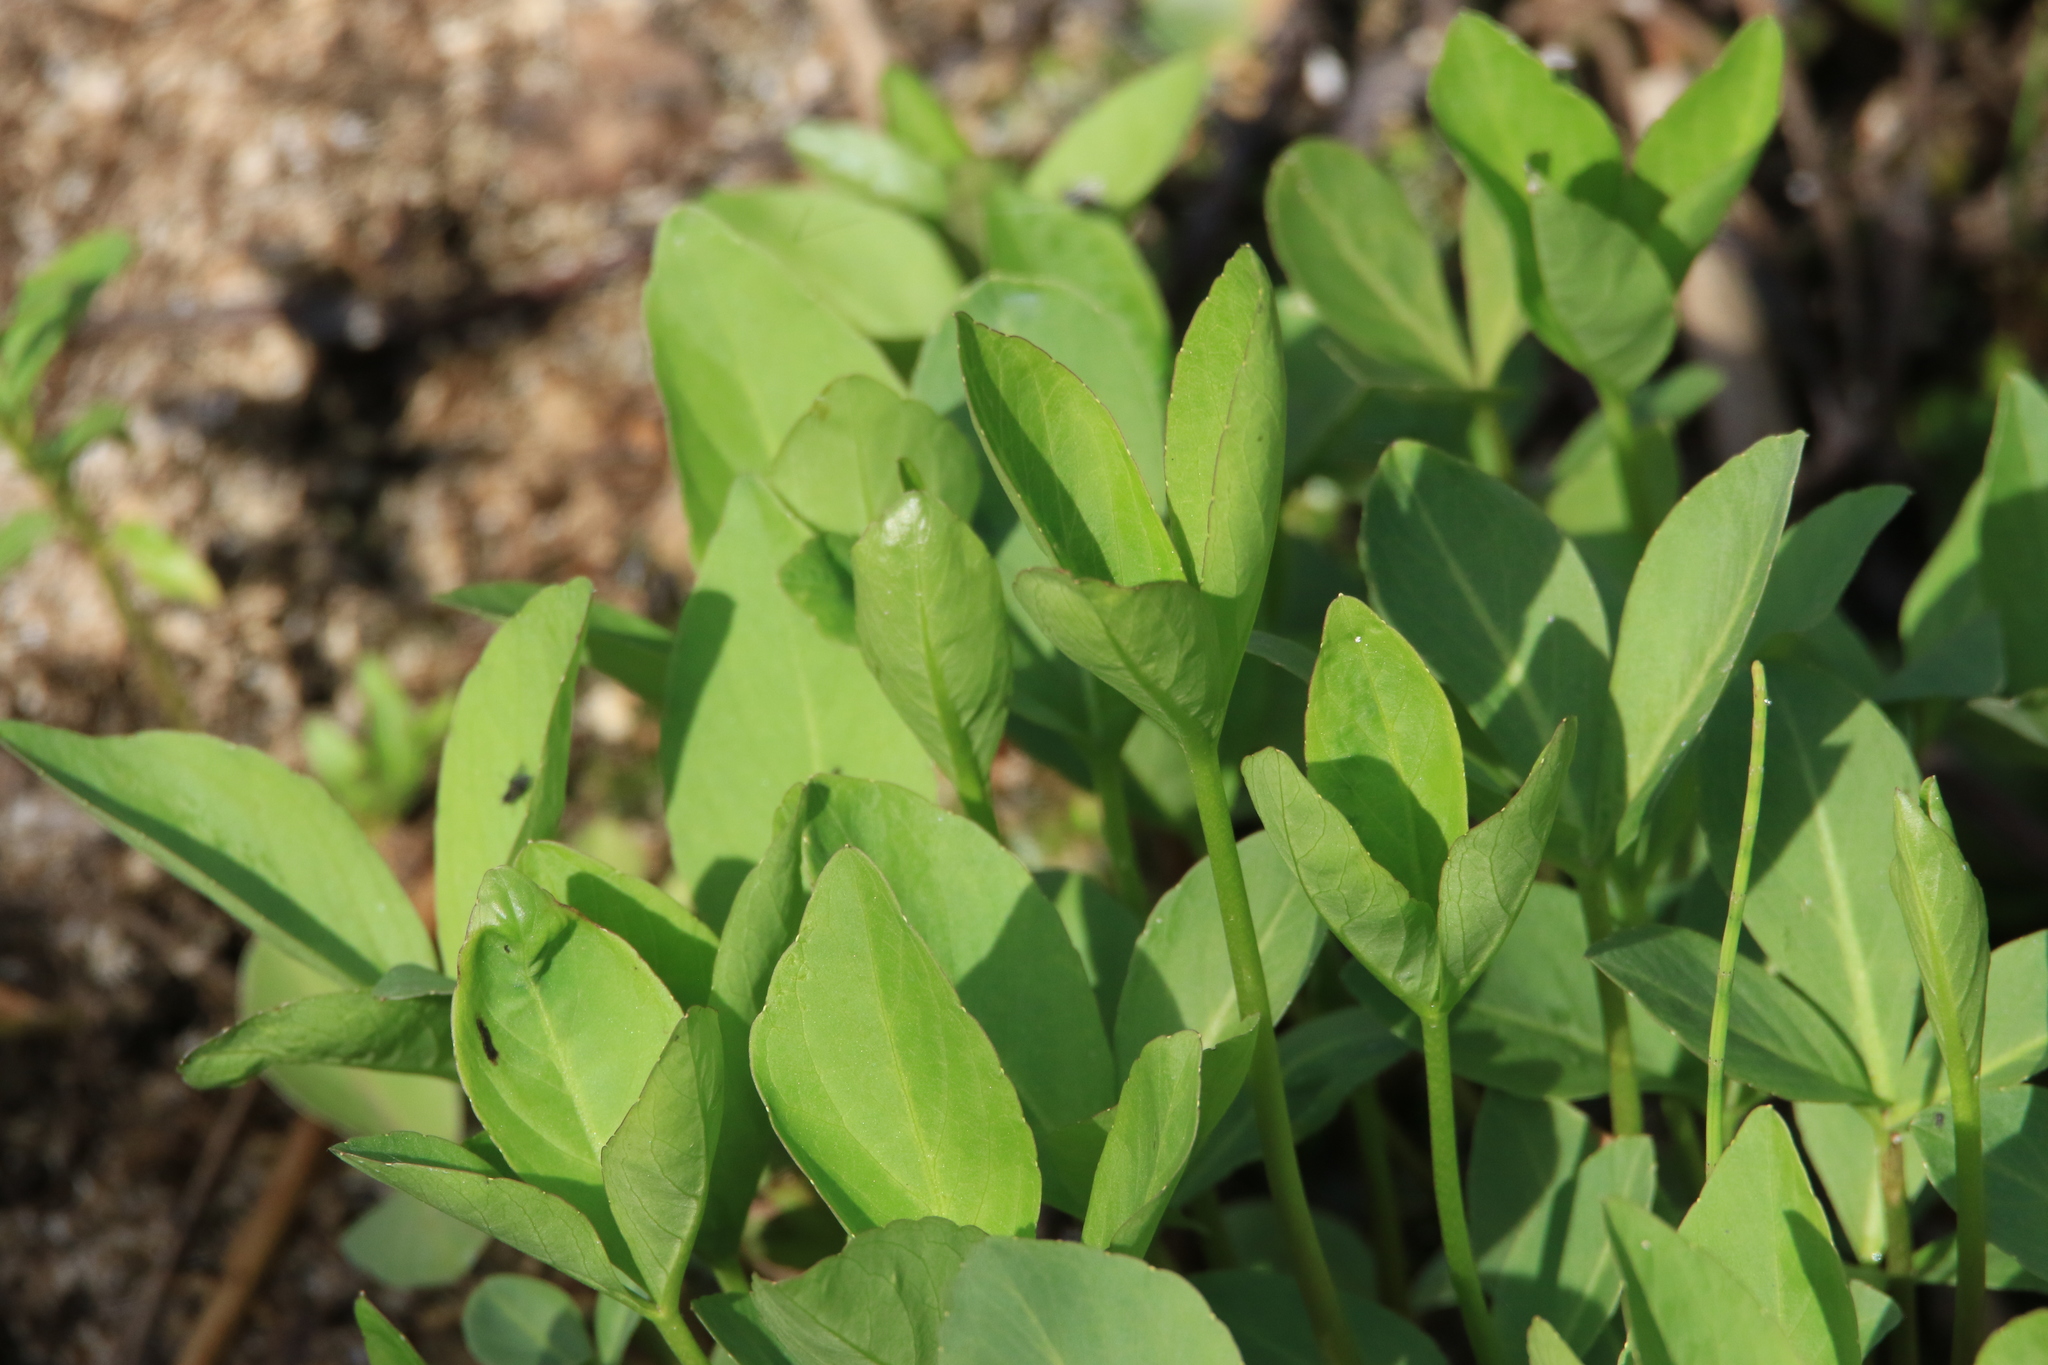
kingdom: Plantae
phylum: Tracheophyta
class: Magnoliopsida
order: Asterales
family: Menyanthaceae
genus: Menyanthes
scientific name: Menyanthes trifoliata
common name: Bogbean
